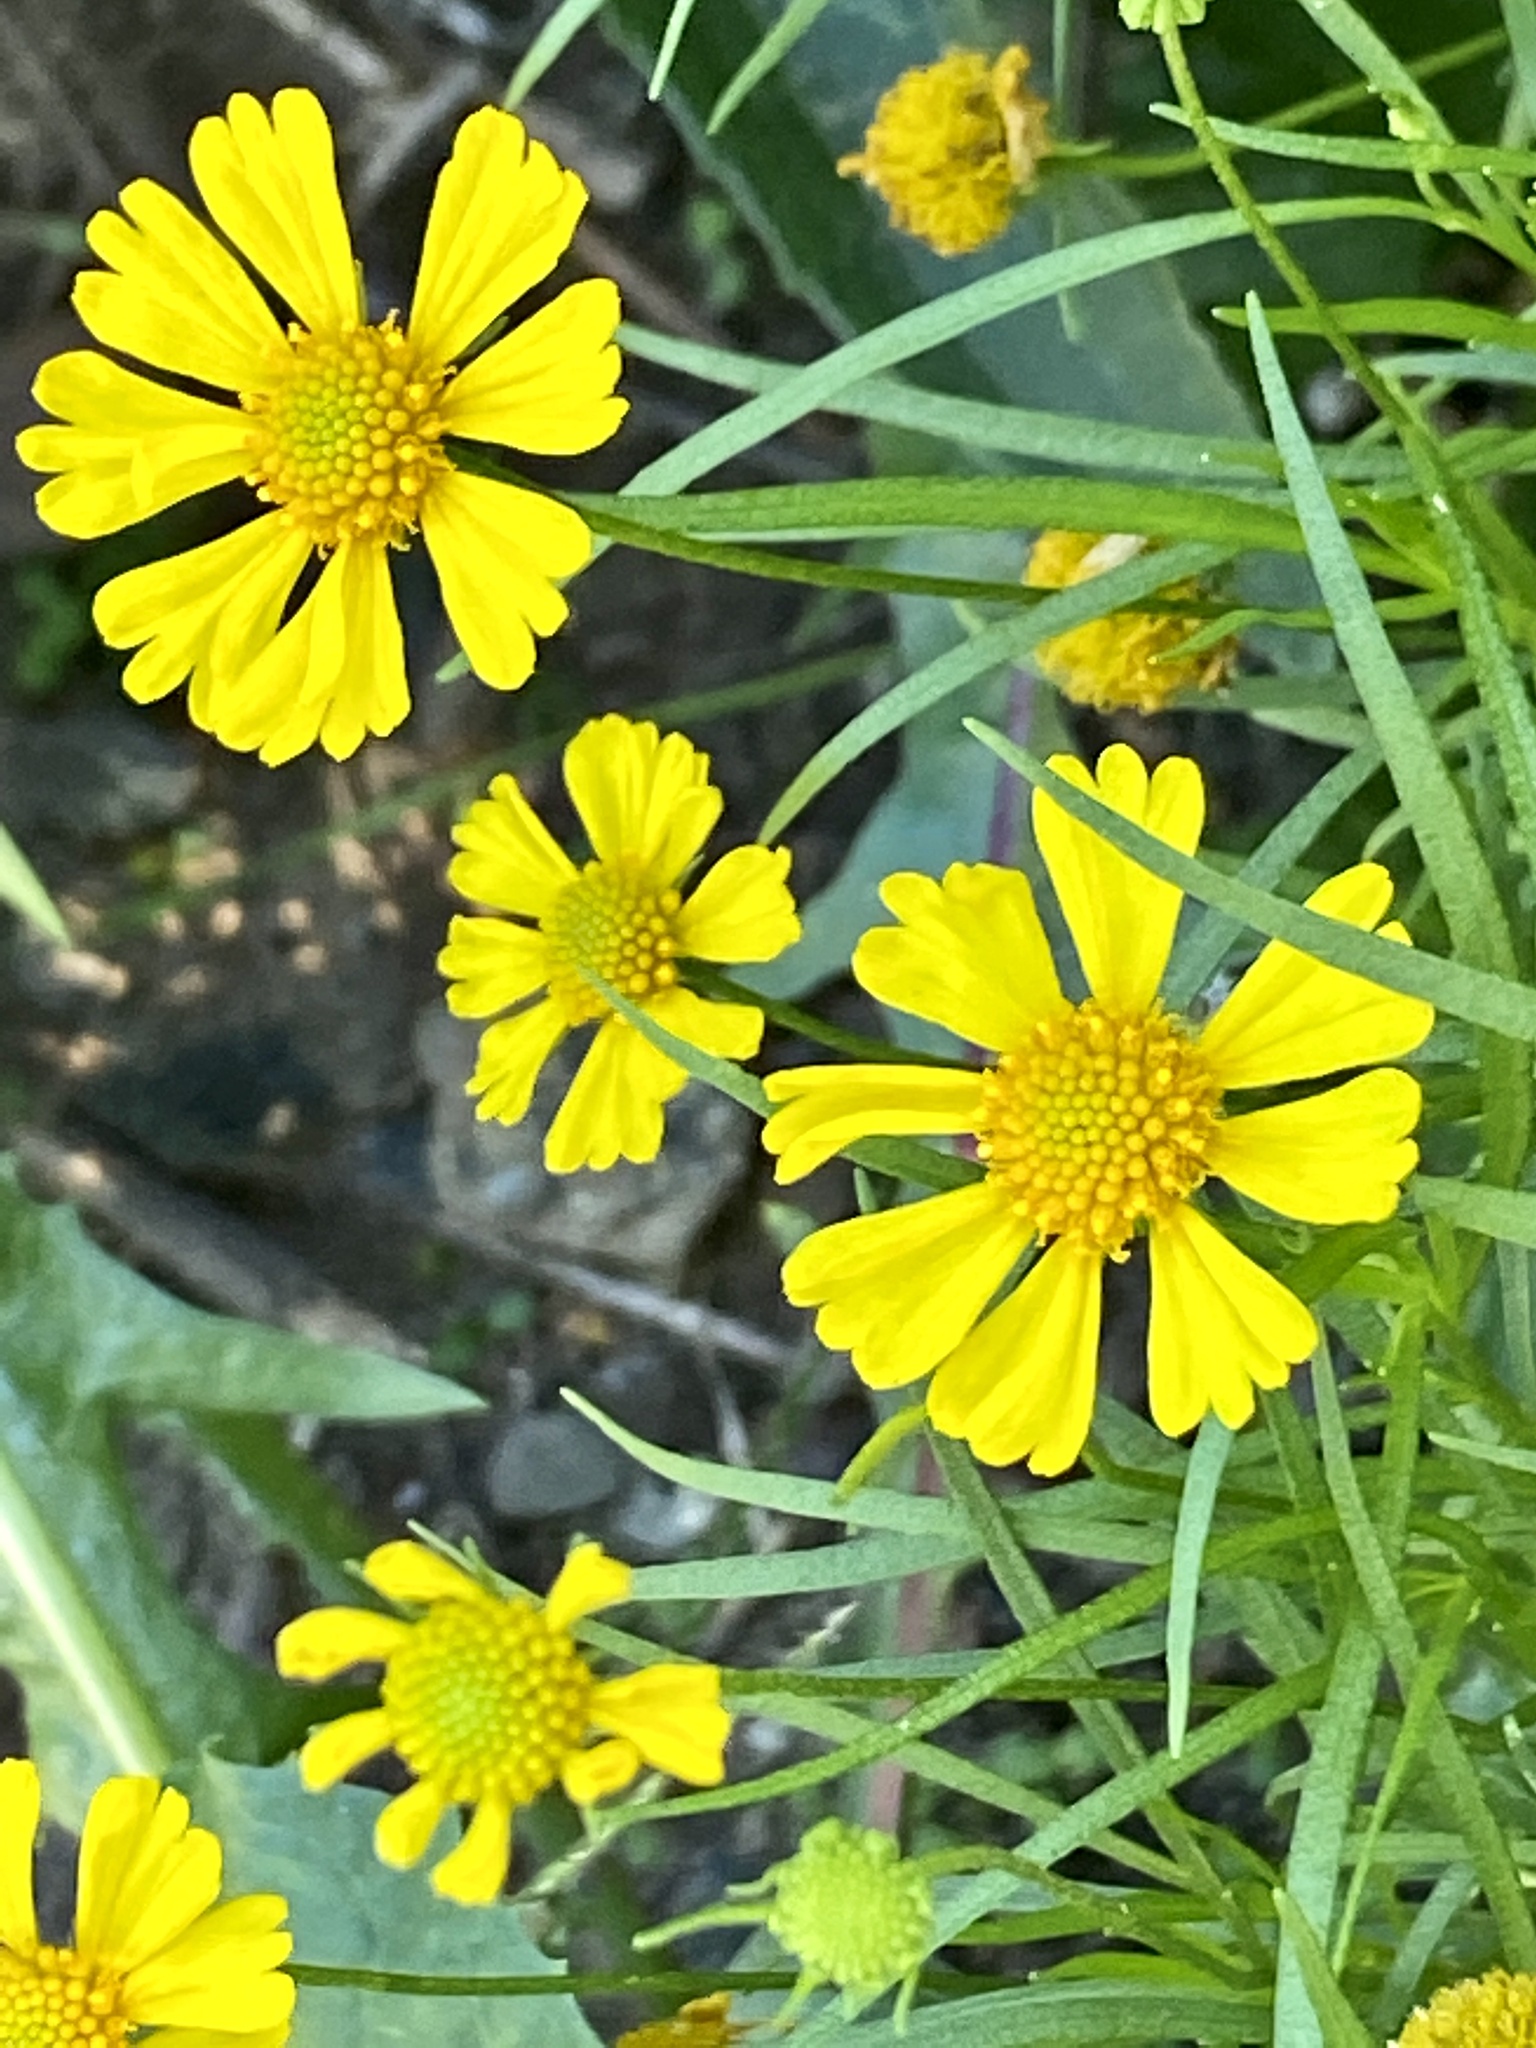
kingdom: Plantae
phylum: Tracheophyta
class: Magnoliopsida
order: Asterales
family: Asteraceae
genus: Helenium
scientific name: Helenium autumnale
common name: Sneezeweed
